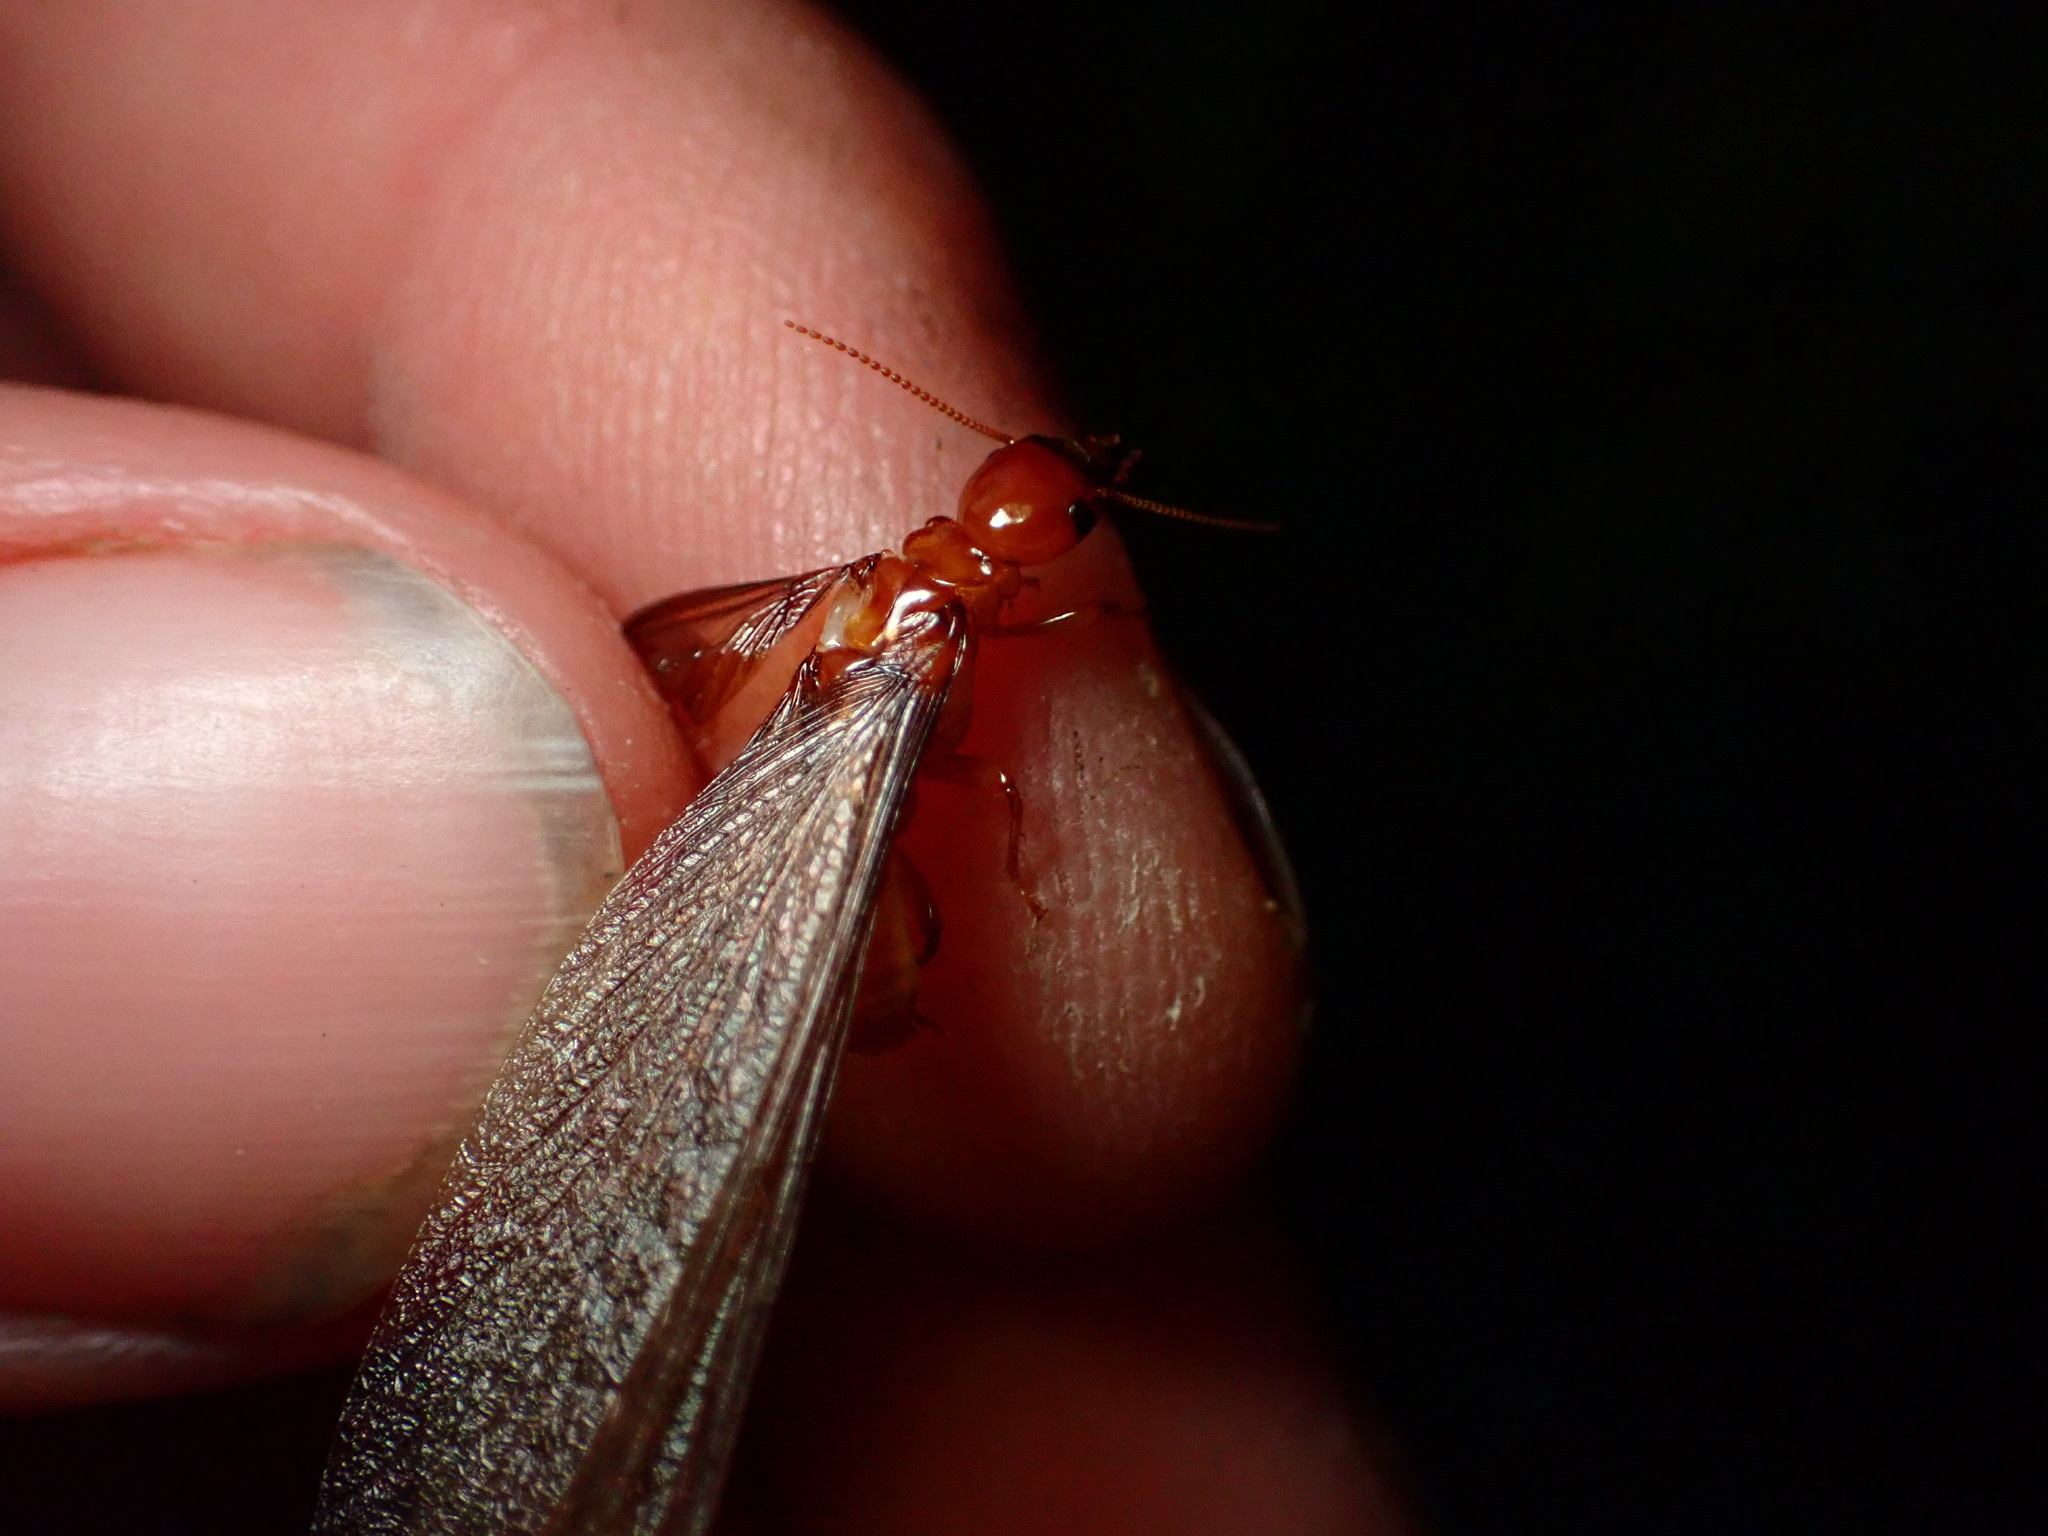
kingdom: Animalia
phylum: Arthropoda
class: Insecta
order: Blattodea
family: Archotermopsidae
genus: Zootermopsis
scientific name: Zootermopsis angusticollis
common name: Rottenwood termite
